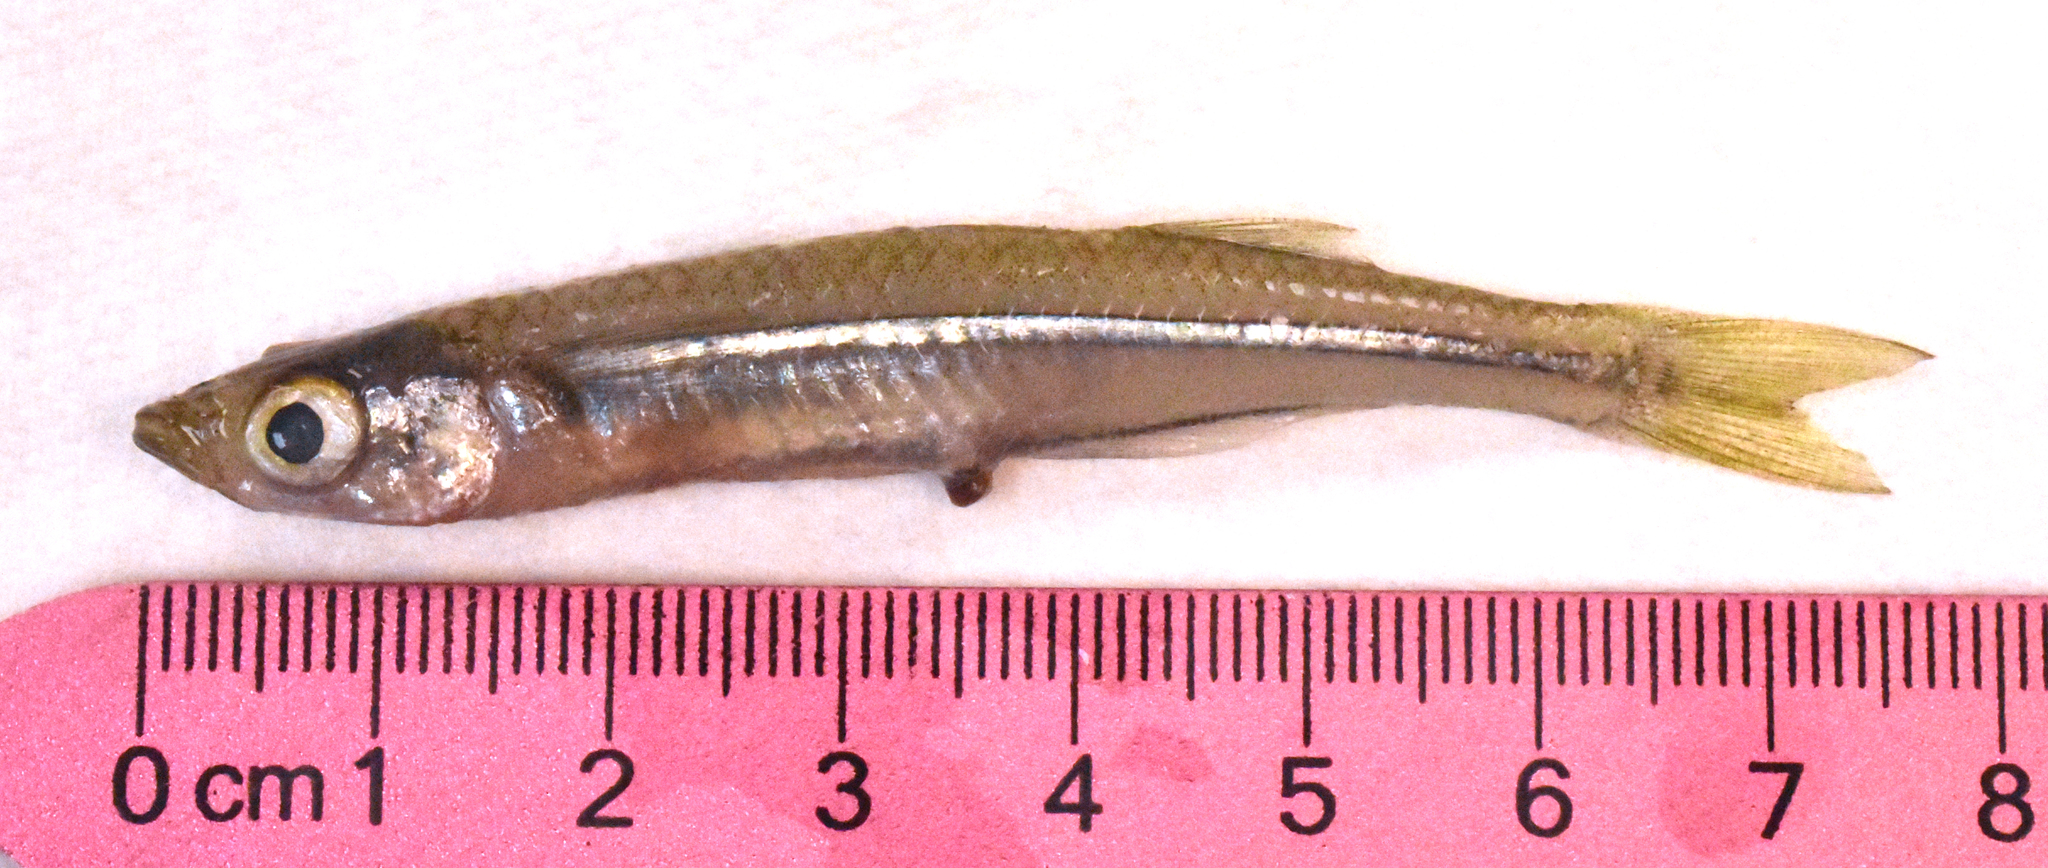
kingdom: Animalia
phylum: Chordata
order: Atheriniformes
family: Atherinopsidae
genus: Menidia
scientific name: Menidia beryllina
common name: Inland silverside
